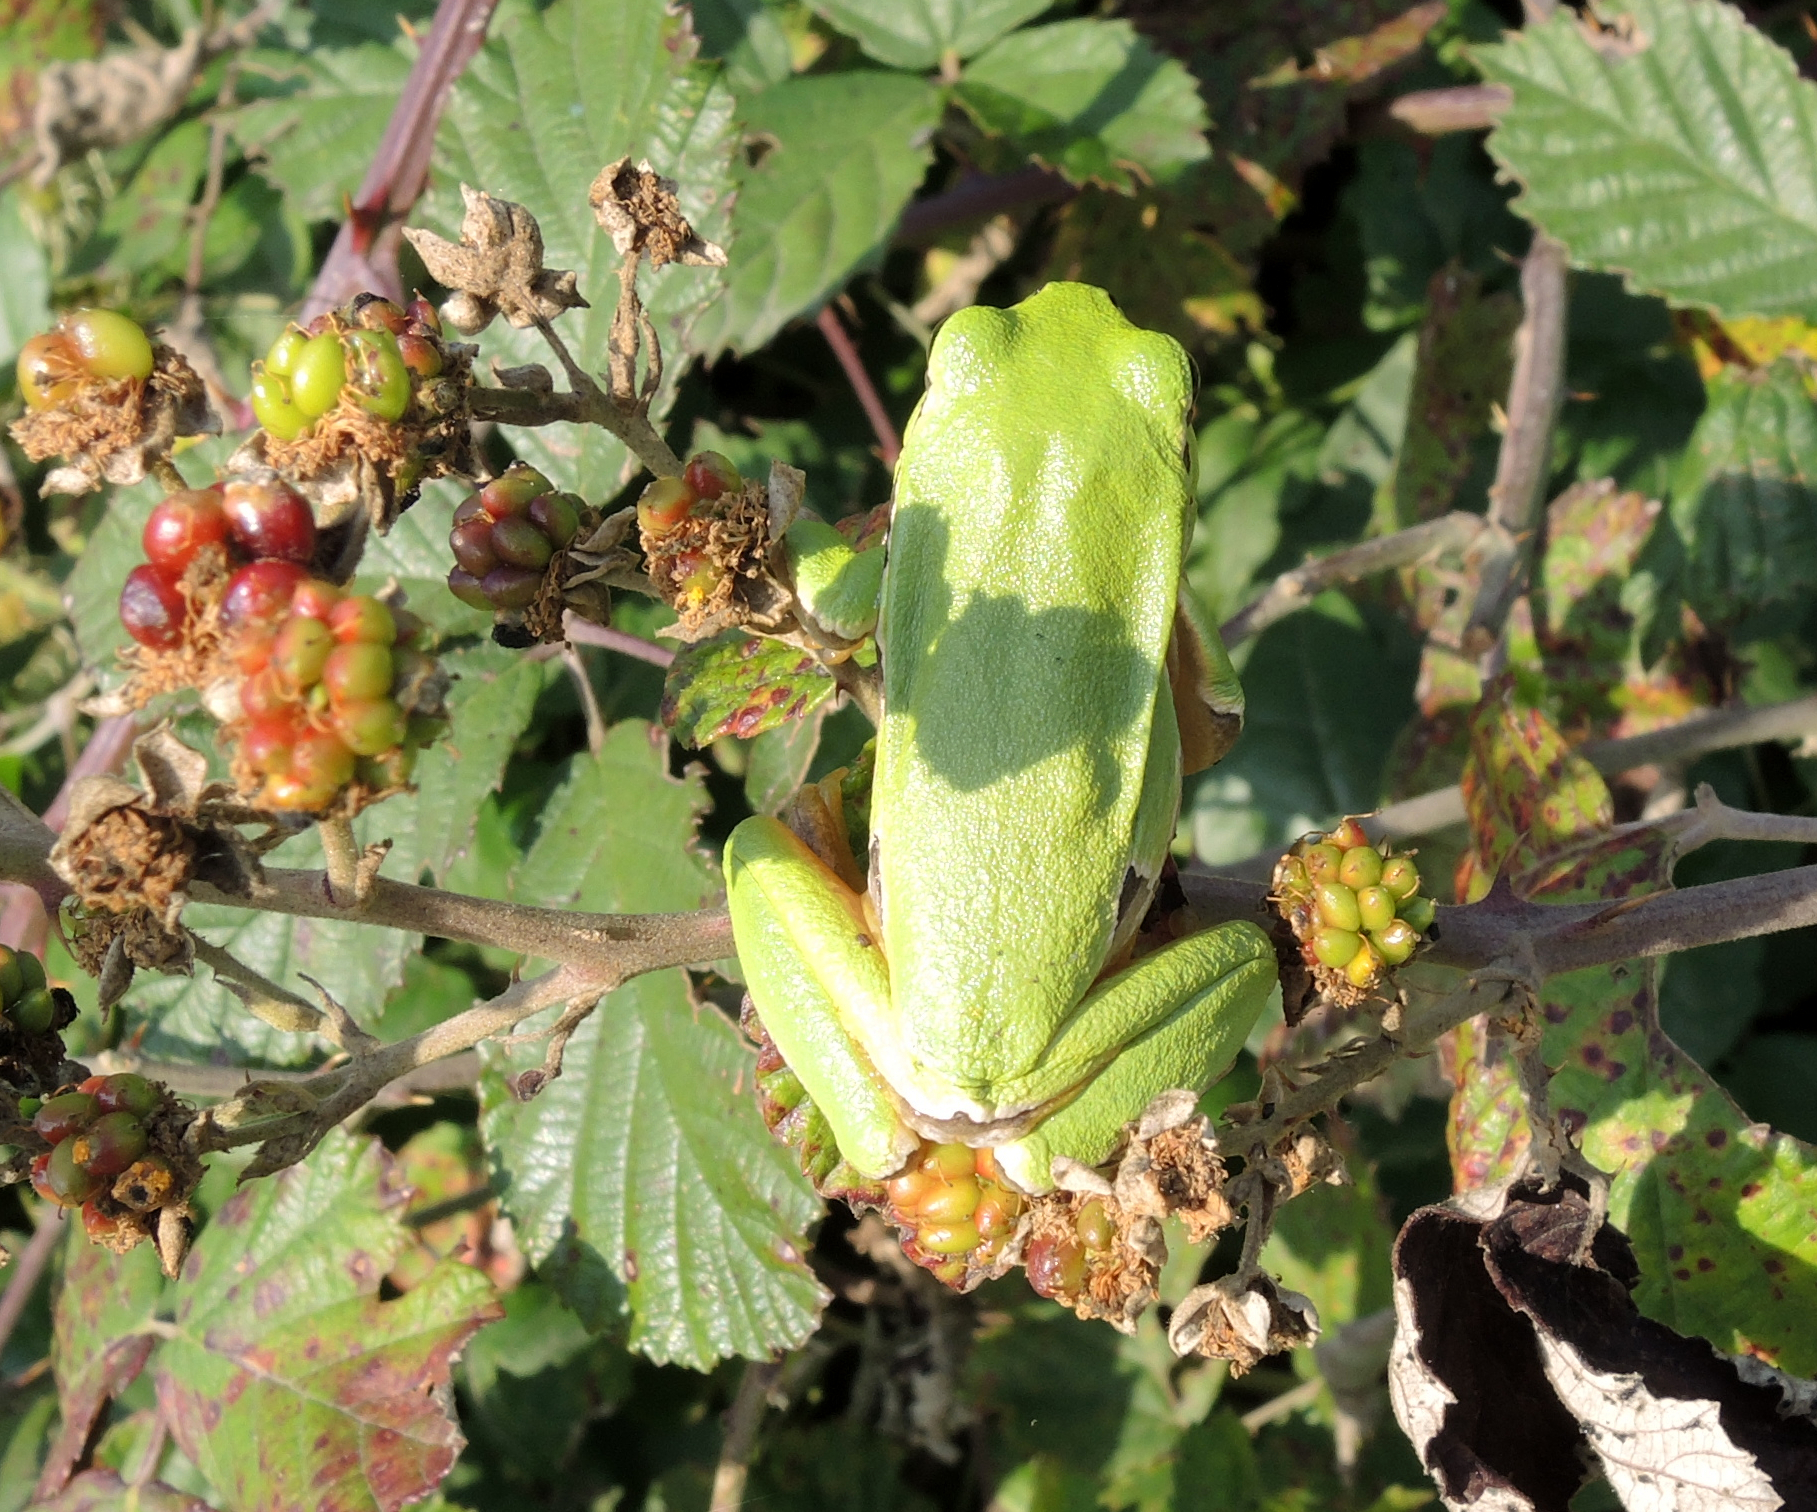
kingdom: Animalia
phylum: Chordata
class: Amphibia
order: Anura
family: Hylidae
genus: Hyla
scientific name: Hyla orientalis
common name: Caucasian treefrog
